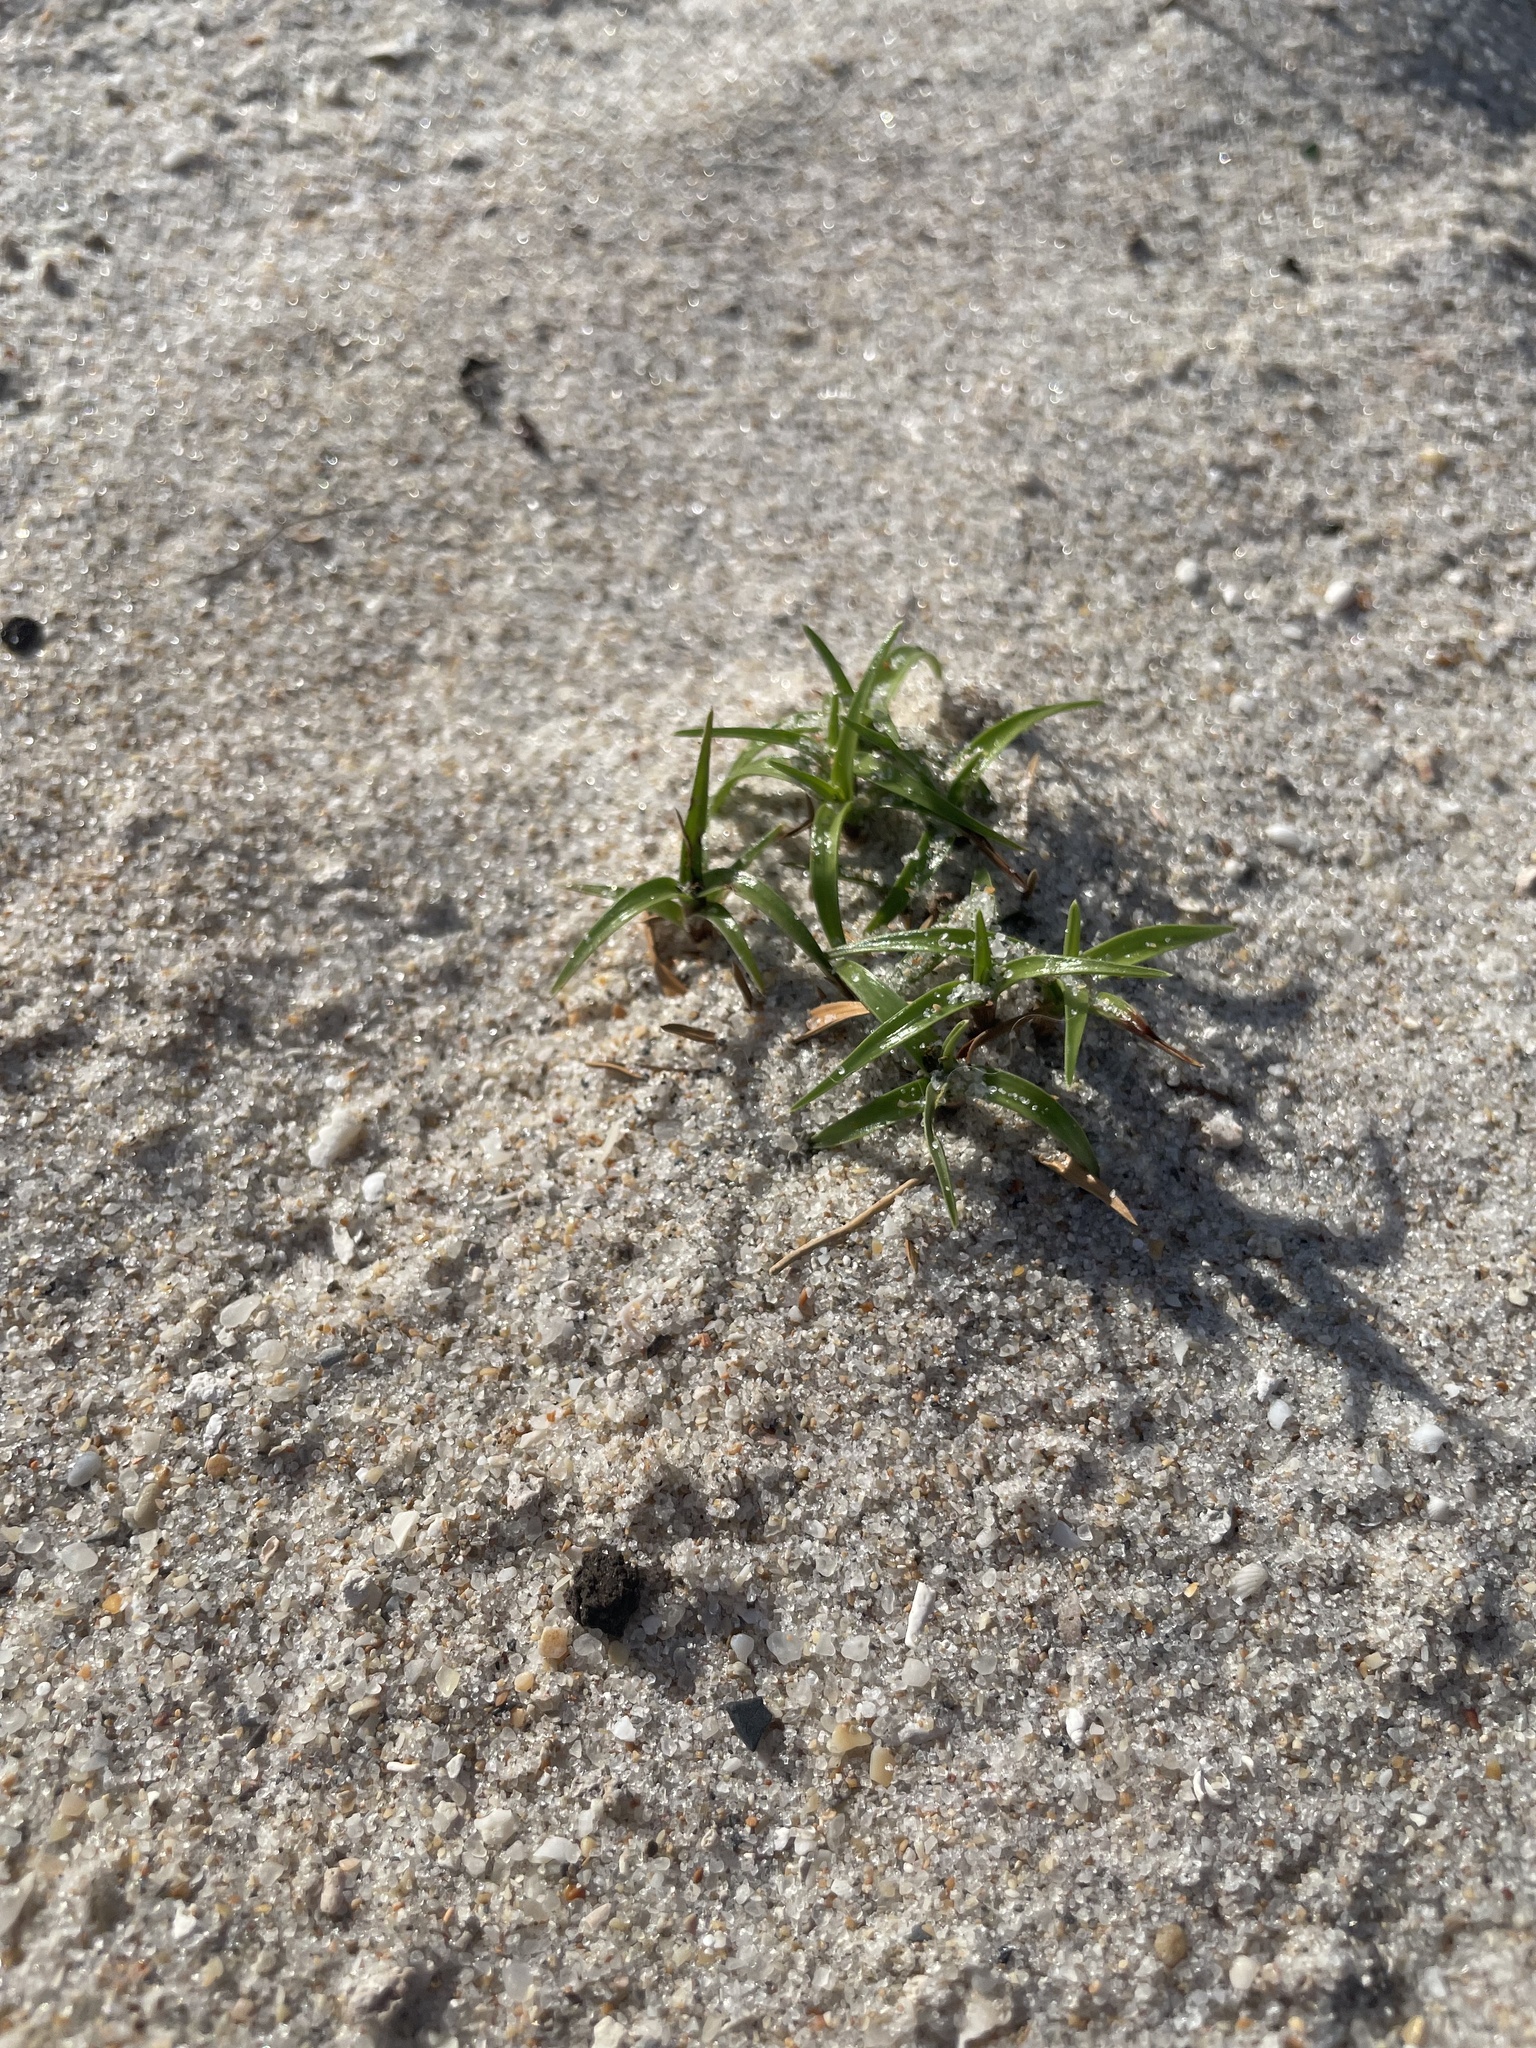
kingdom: Plantae
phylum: Tracheophyta
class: Liliopsida
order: Poales
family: Cyperaceae
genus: Cyperus
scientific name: Cyperus pedunculatus
